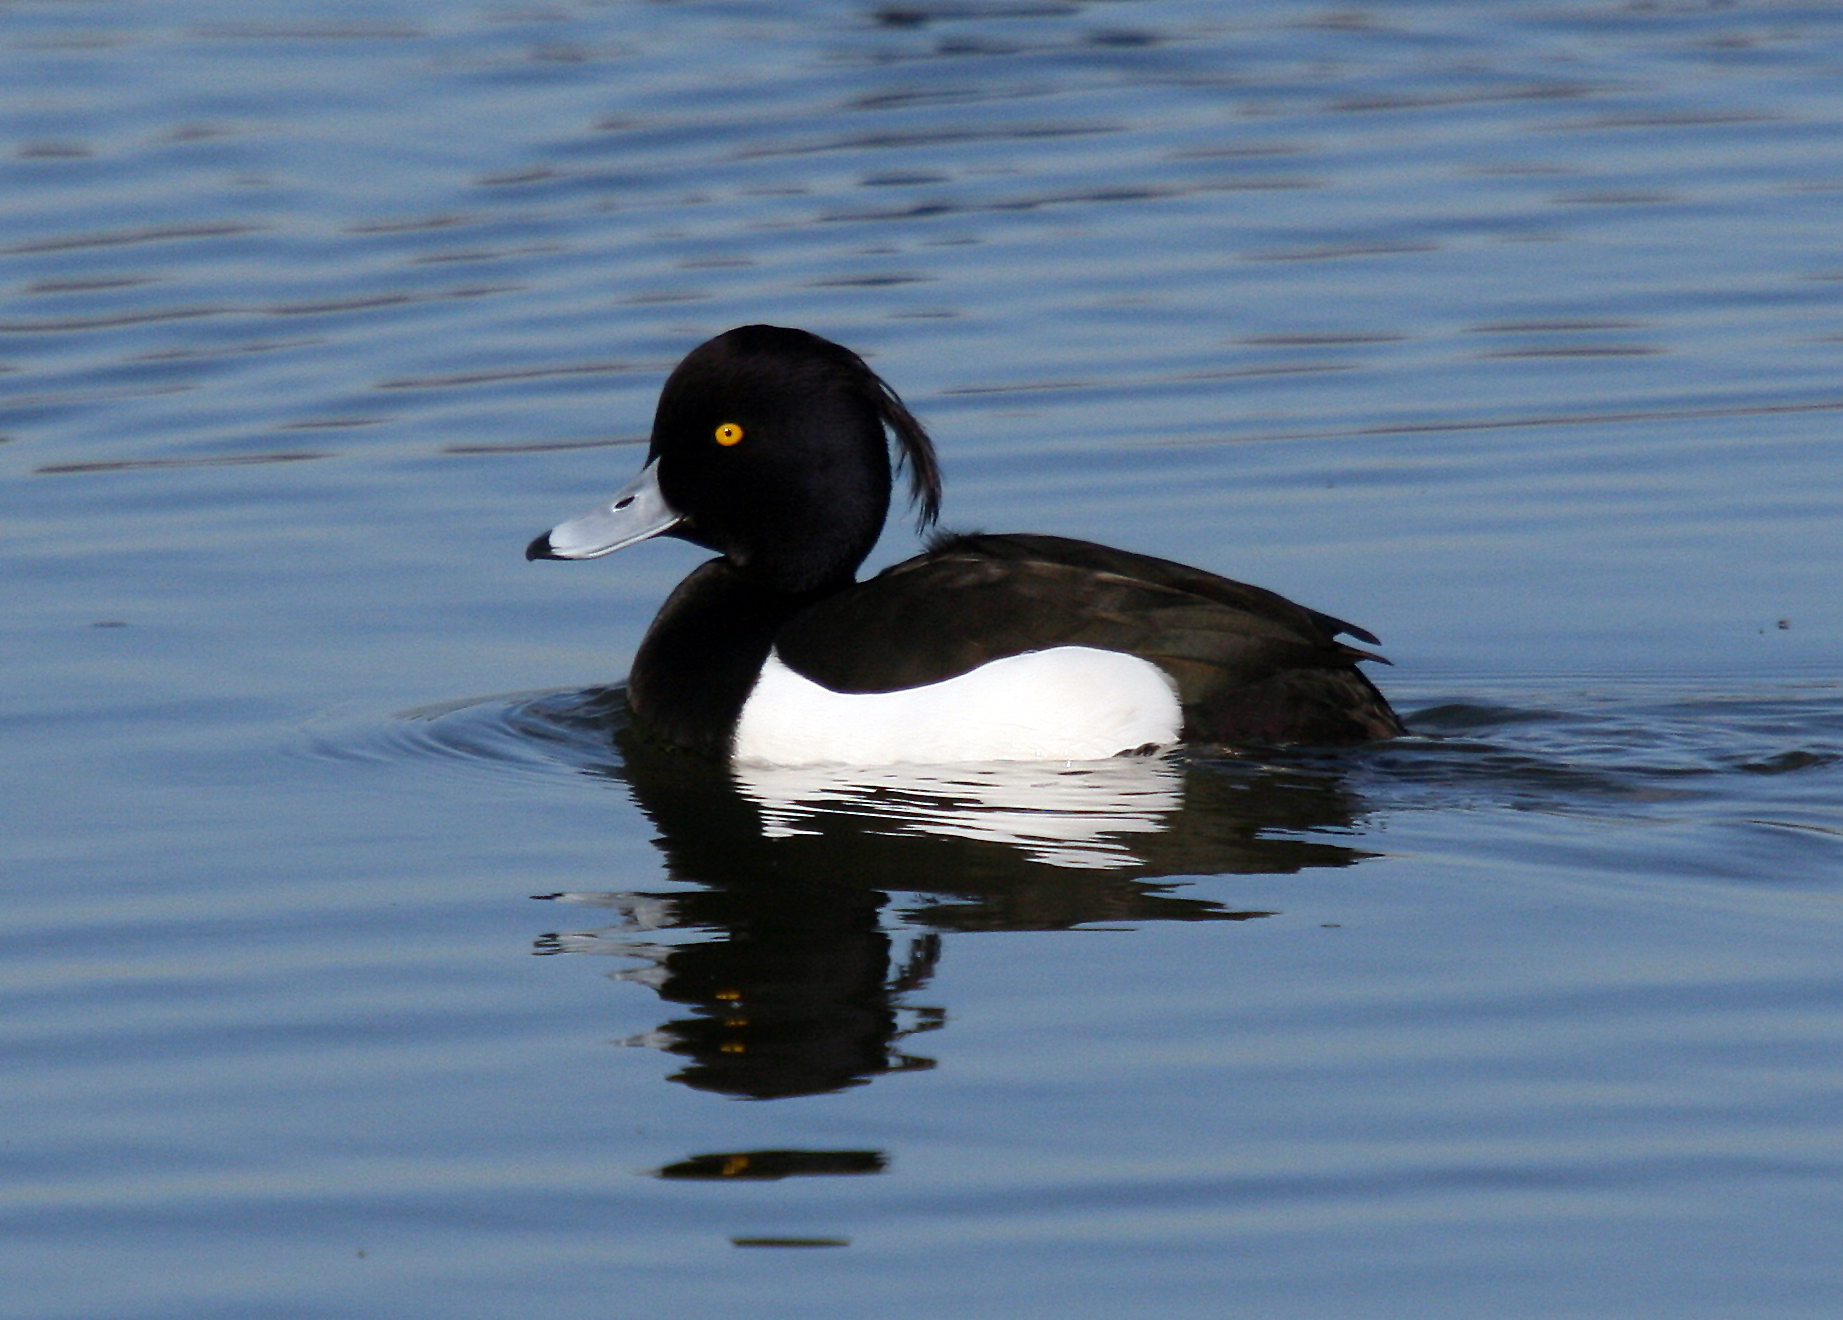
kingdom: Animalia
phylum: Chordata
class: Aves
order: Anseriformes
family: Anatidae
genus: Aythya
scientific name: Aythya fuligula
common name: Tufted duck
